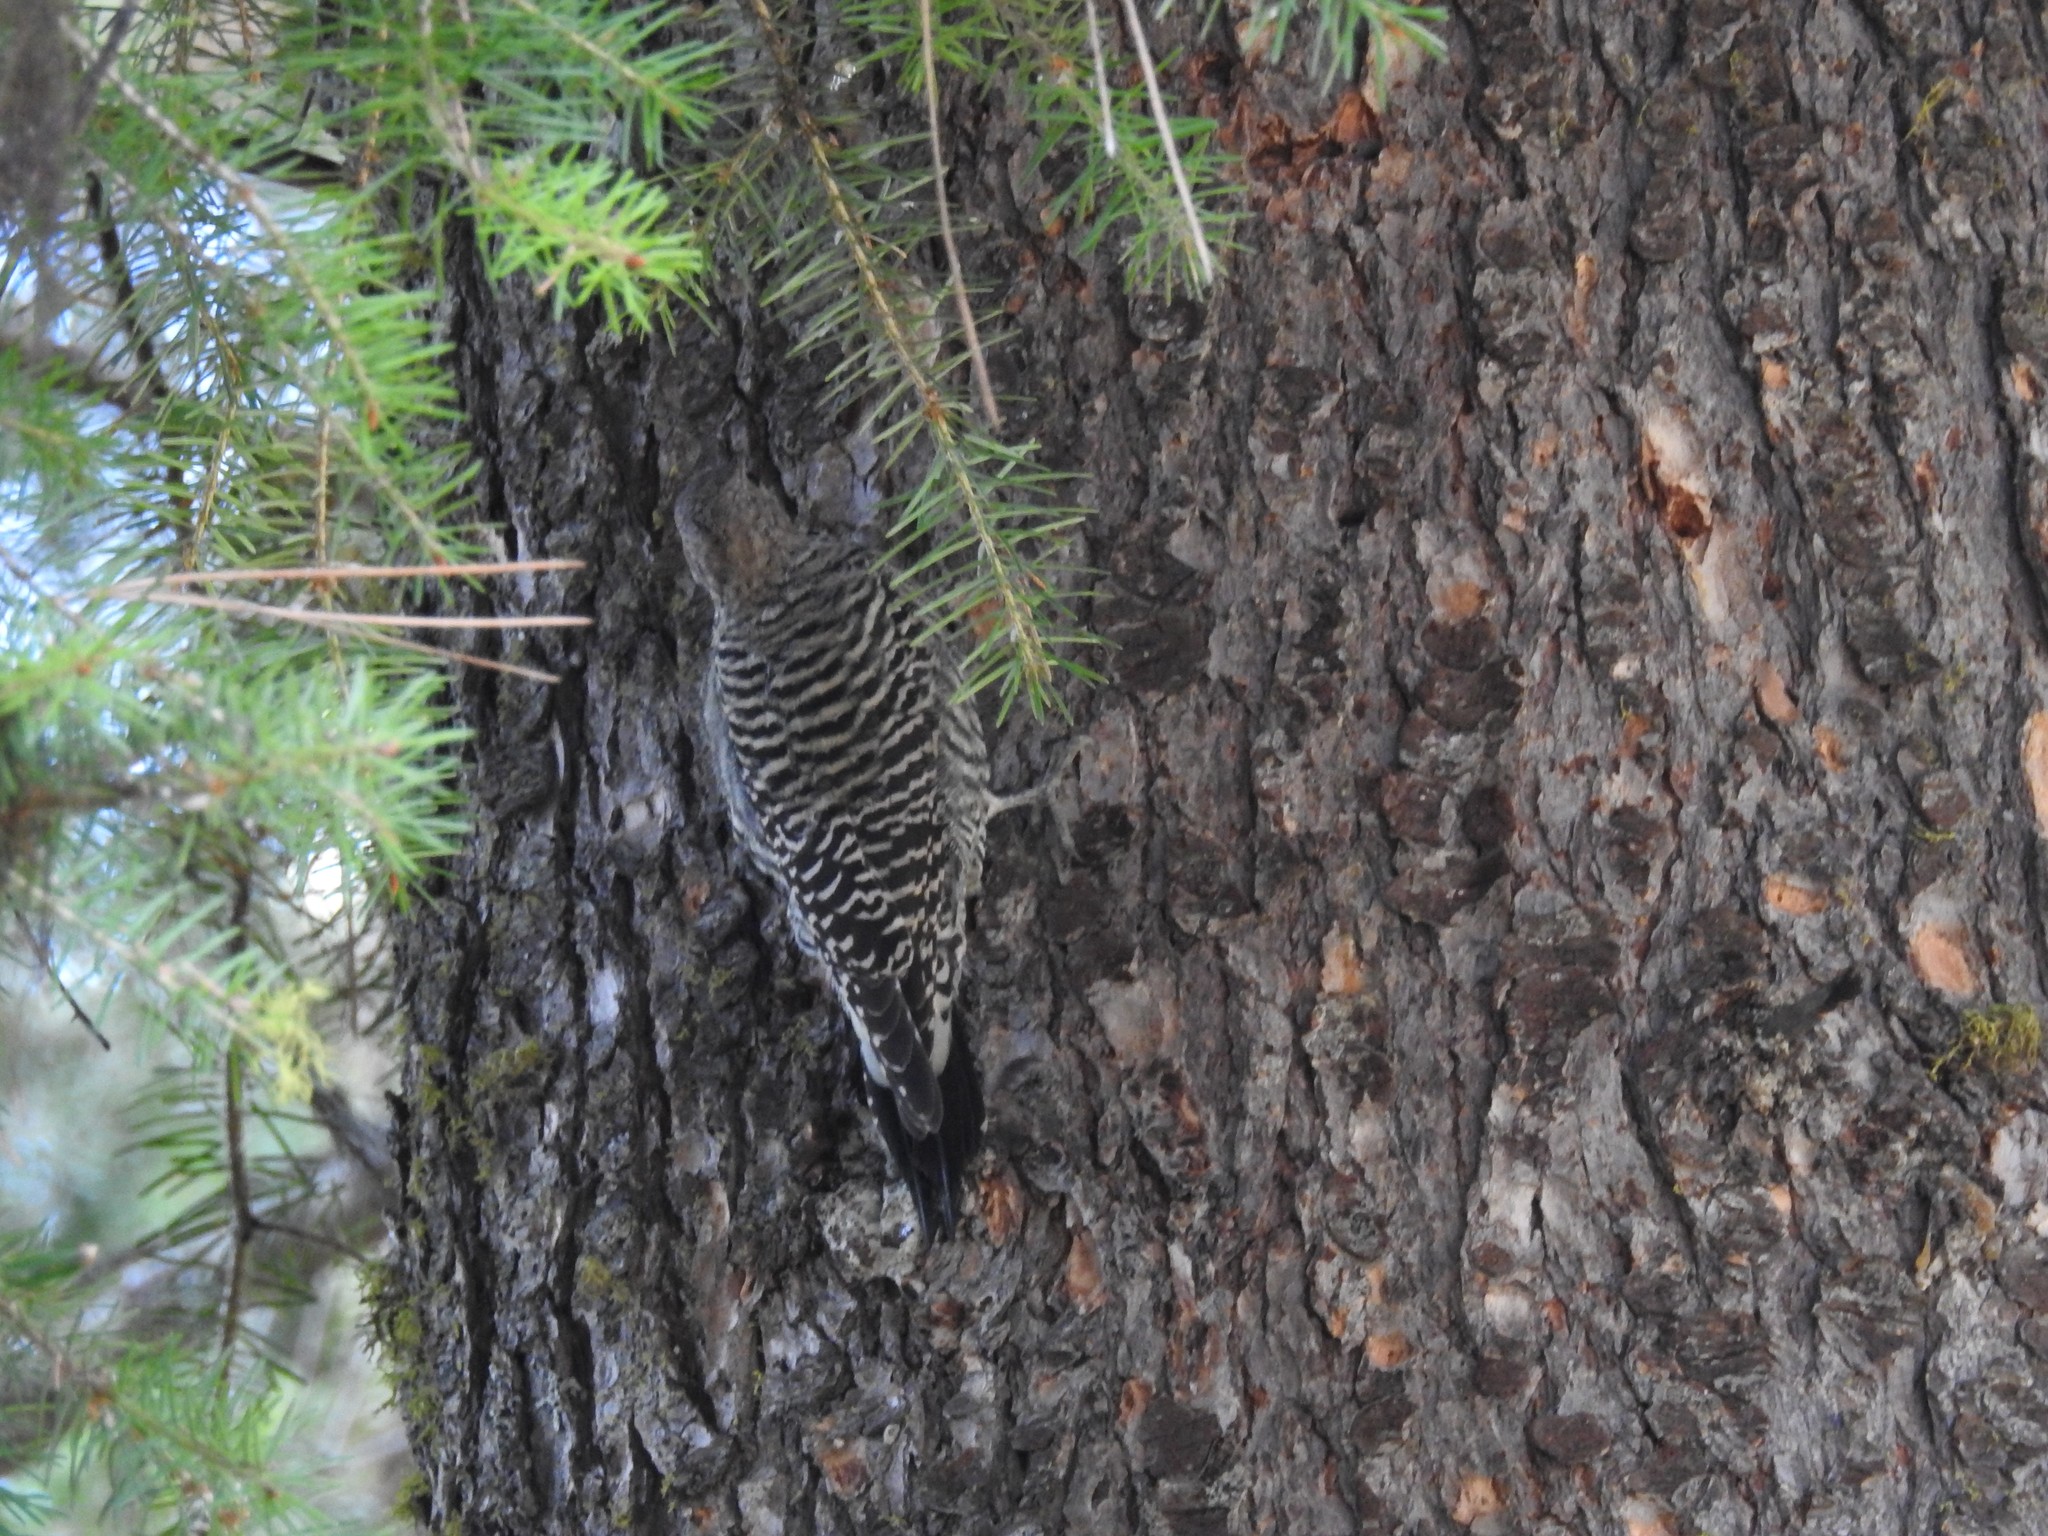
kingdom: Animalia
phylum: Chordata
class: Aves
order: Piciformes
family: Picidae
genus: Colaptes
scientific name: Colaptes auratus
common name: Northern flicker
